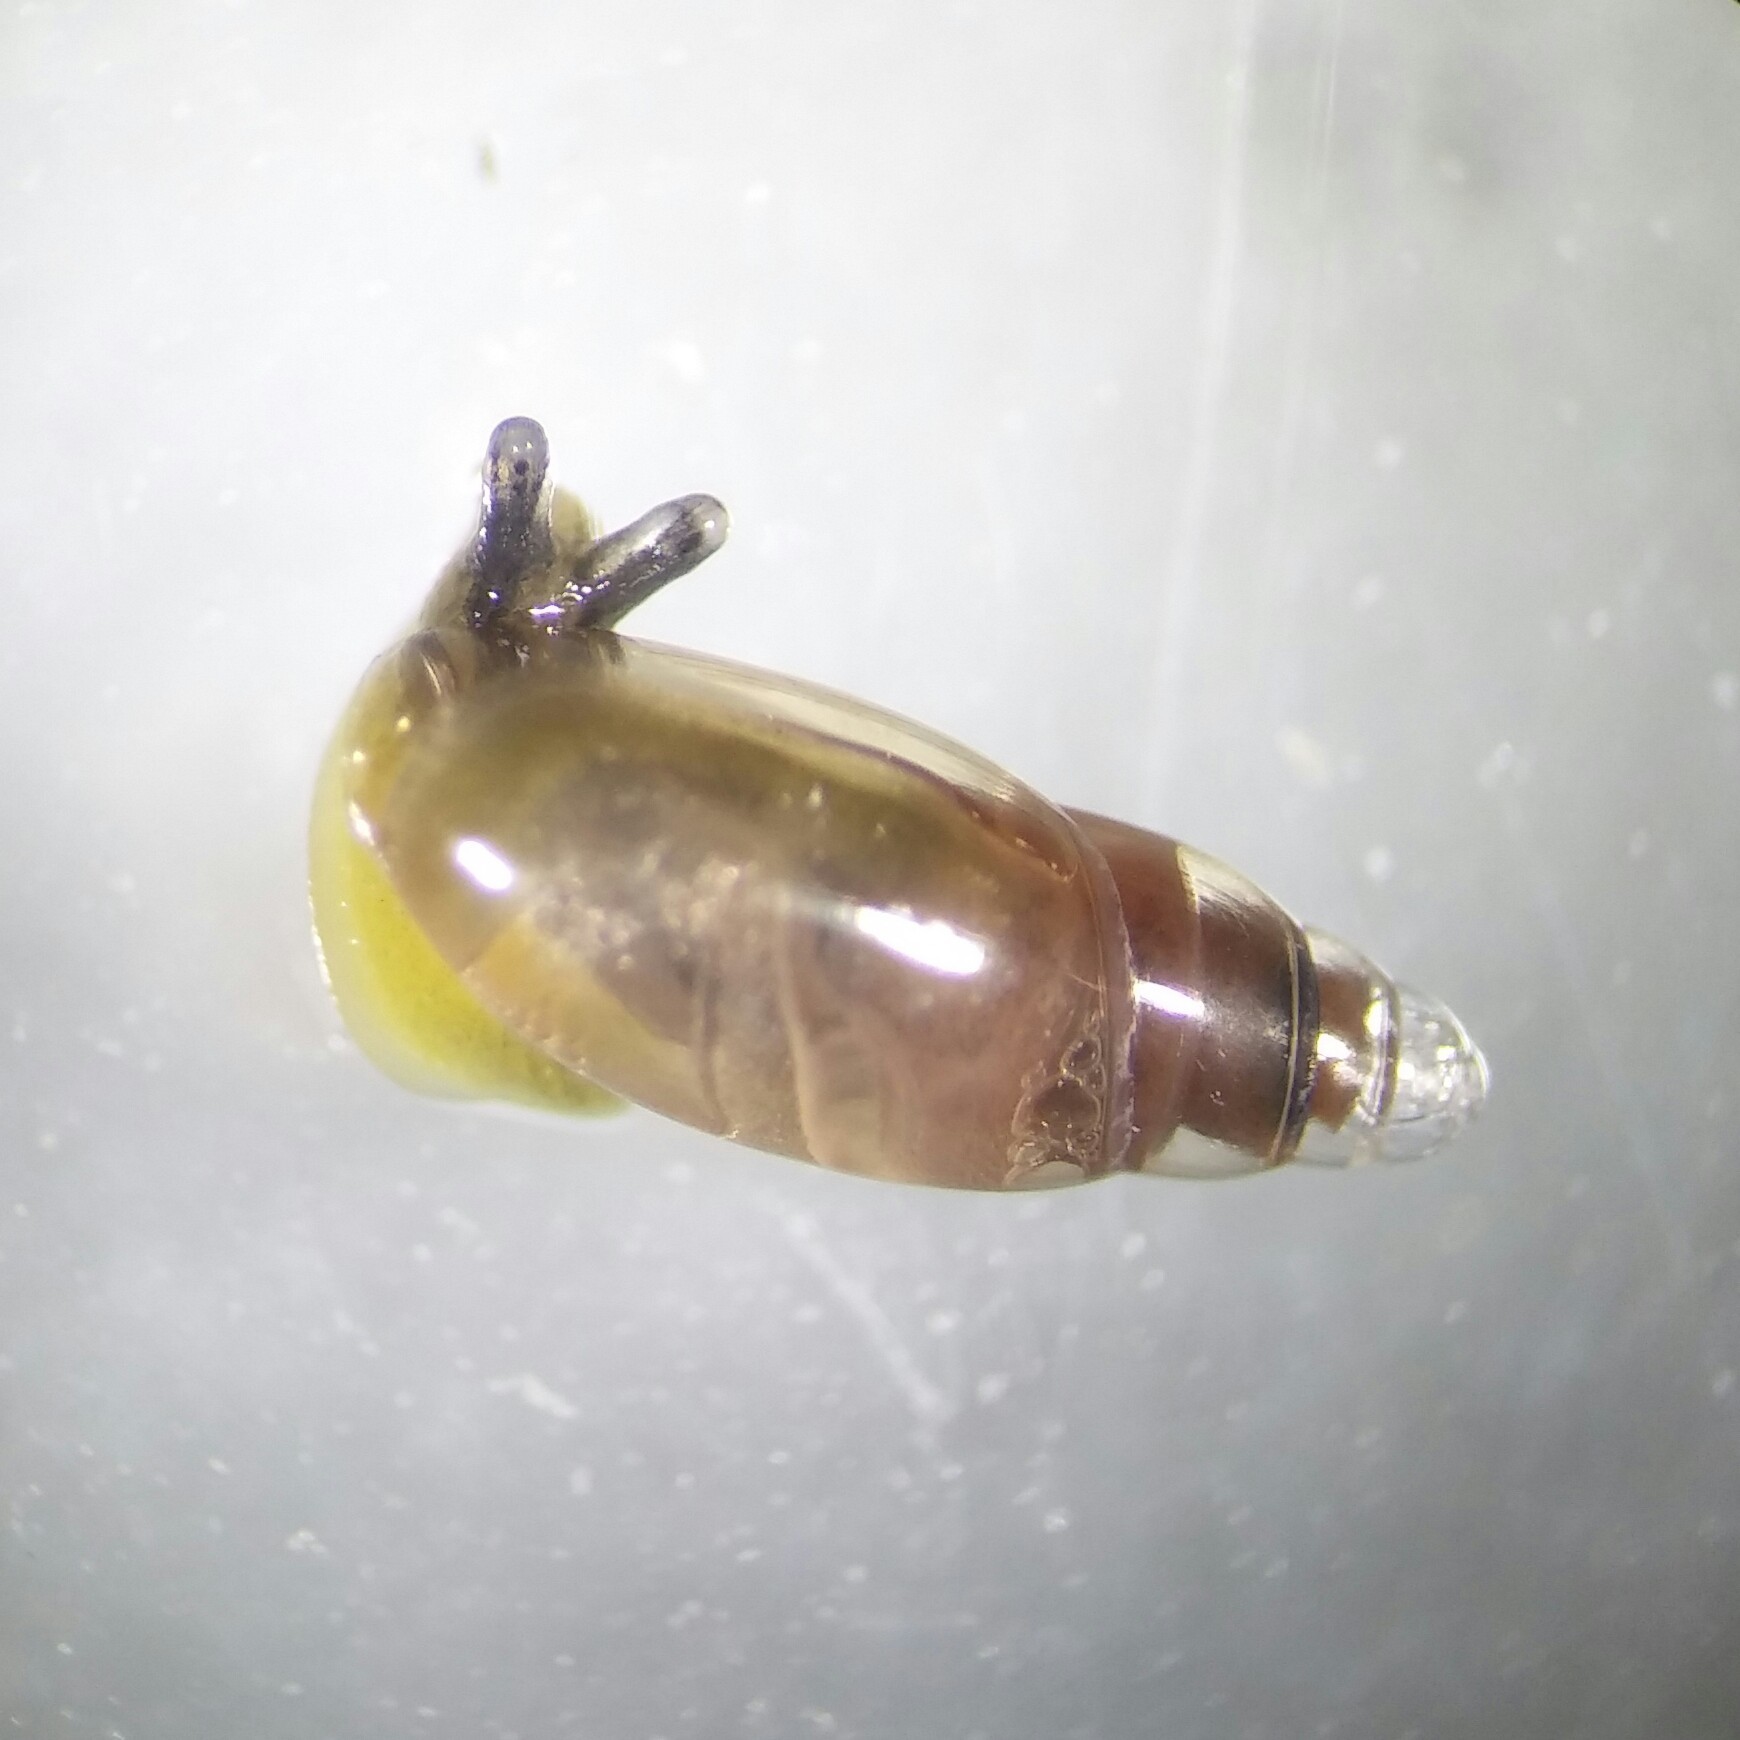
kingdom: Animalia
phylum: Mollusca
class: Gastropoda
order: Stylommatophora
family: Ferussaciidae
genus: Hohenwartiana
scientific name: Hohenwartiana hohenwarti
